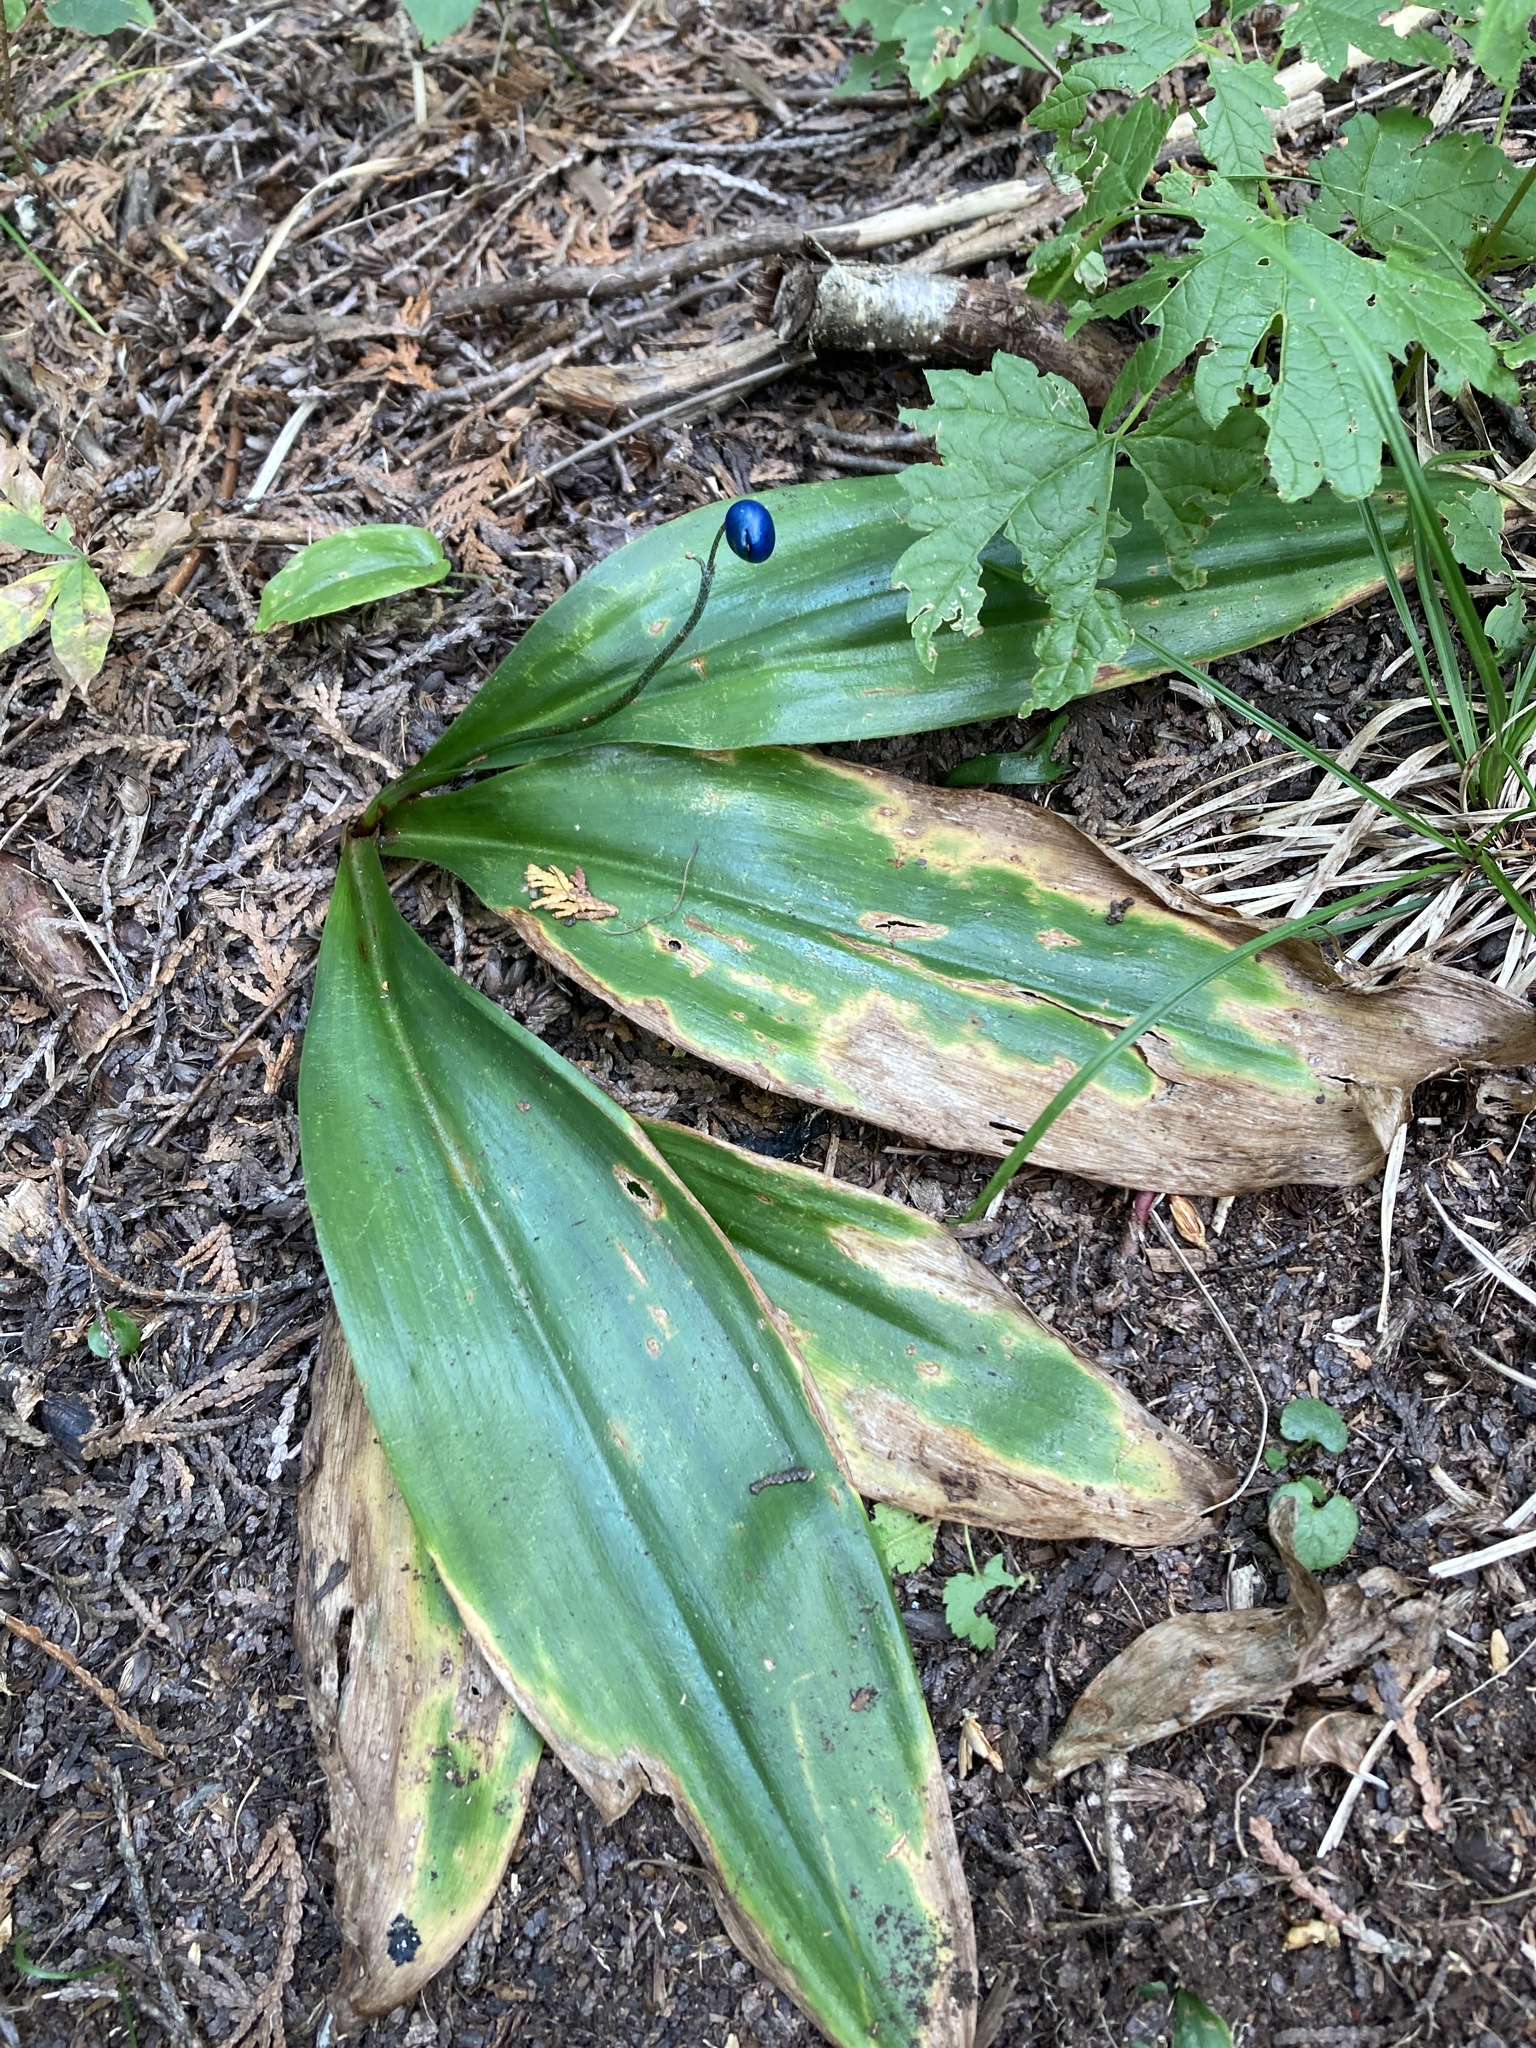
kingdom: Plantae
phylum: Tracheophyta
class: Liliopsida
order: Liliales
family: Liliaceae
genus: Clintonia
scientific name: Clintonia borealis
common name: Yellow clintonia
